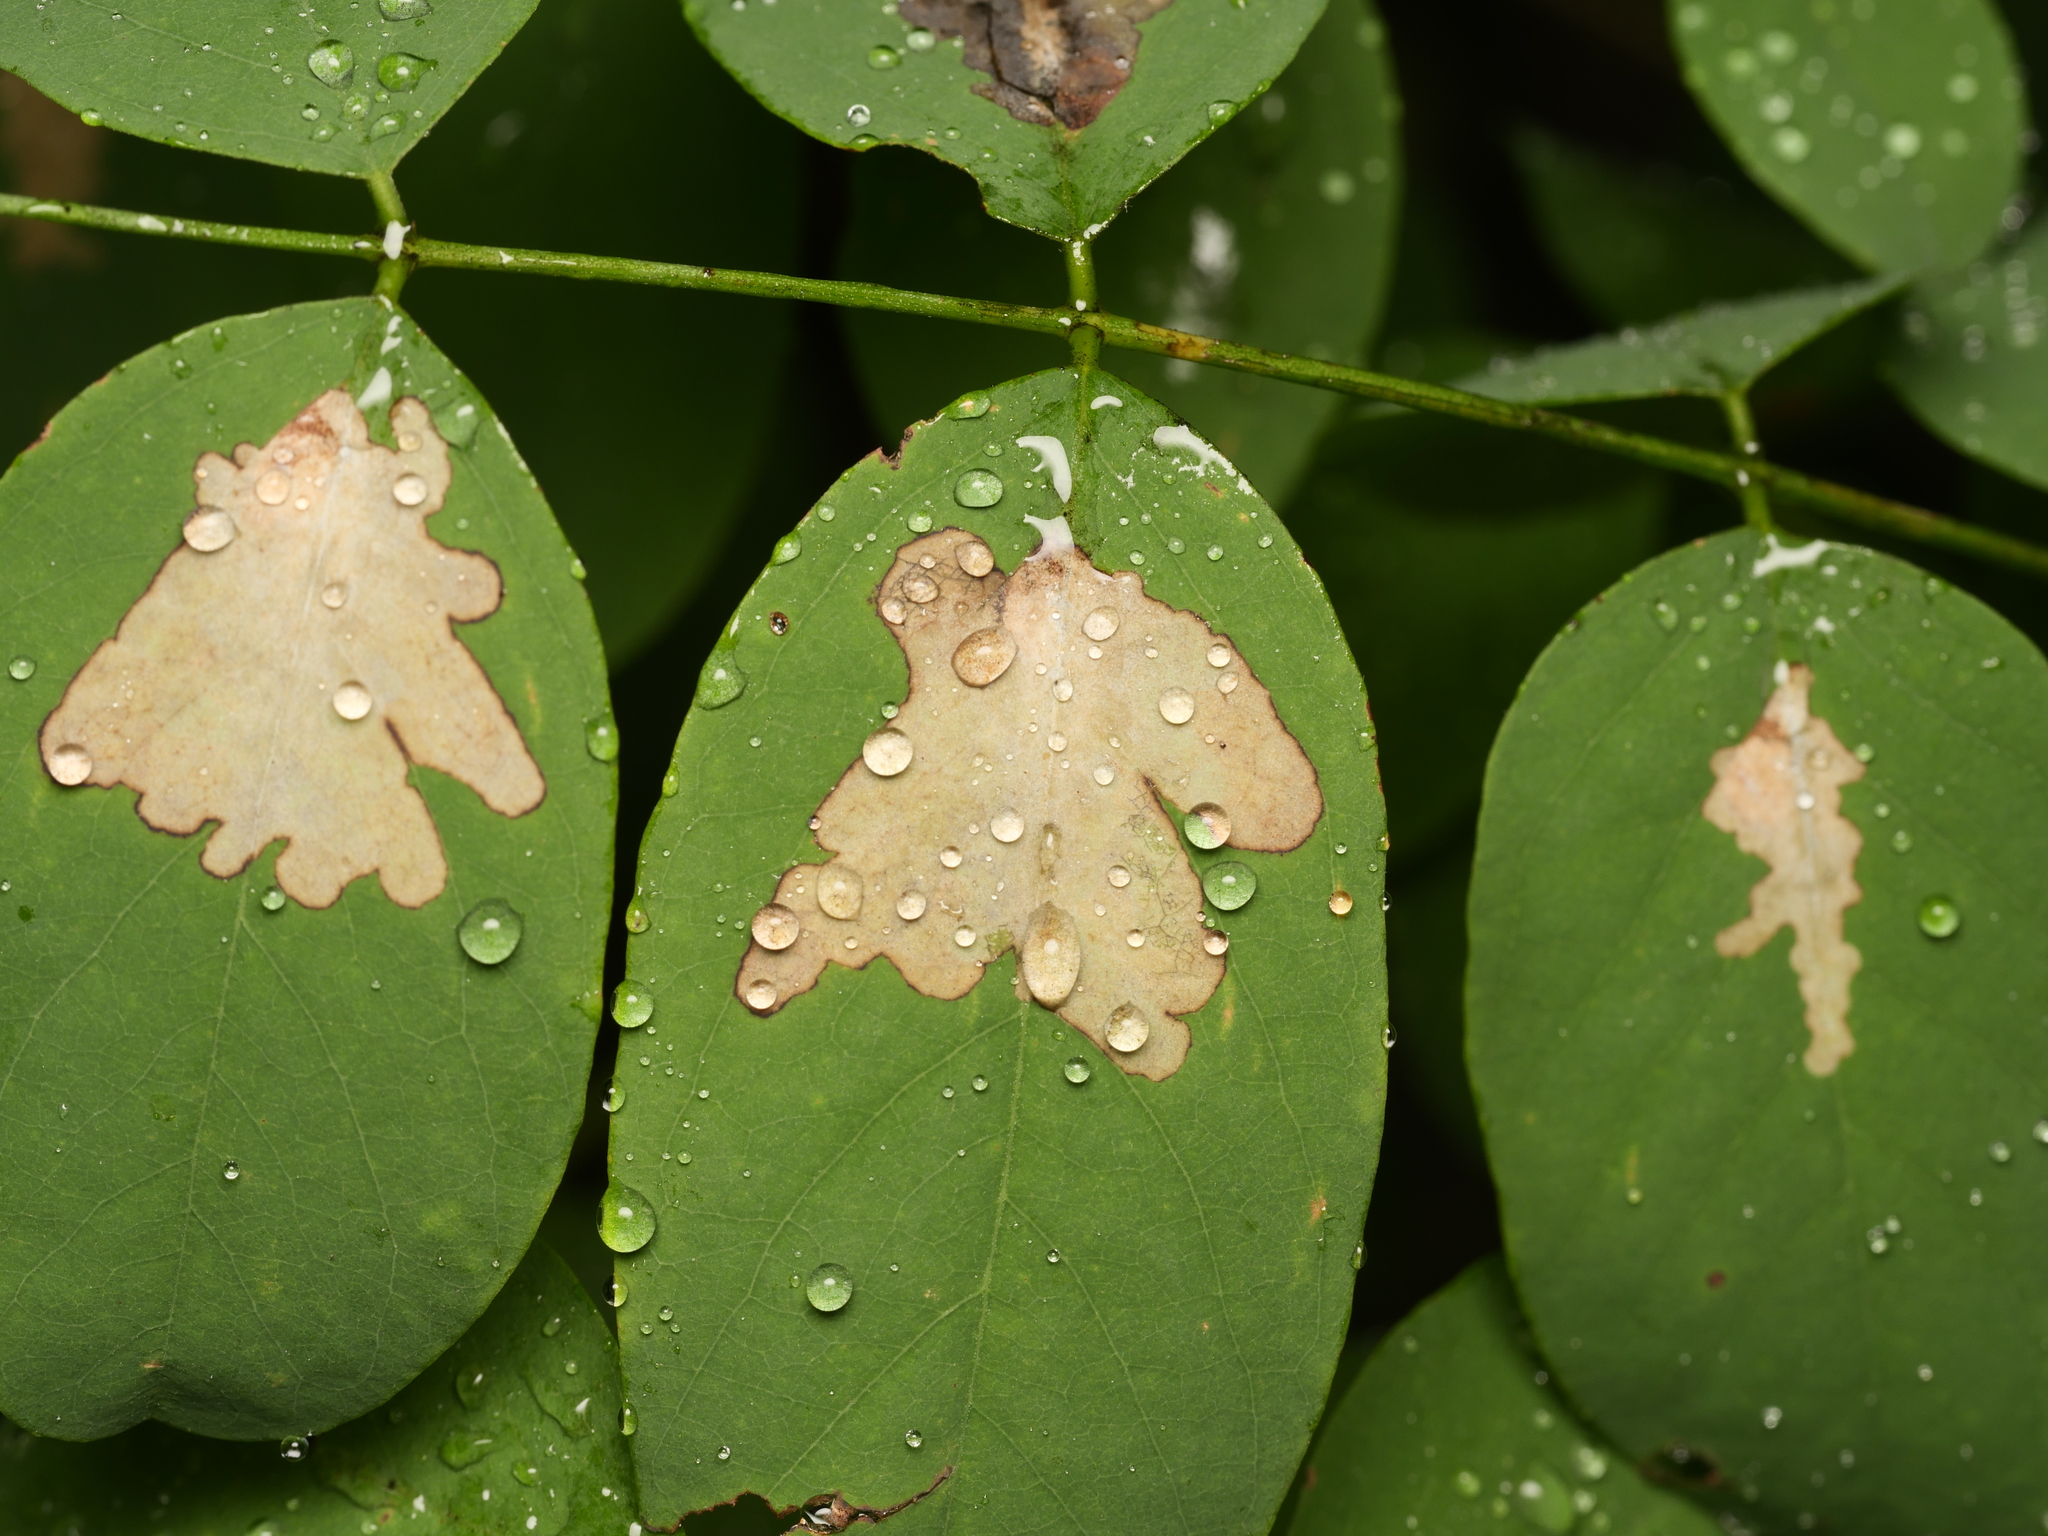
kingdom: Animalia
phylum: Arthropoda
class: Insecta
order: Lepidoptera
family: Gracillariidae
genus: Parectopa
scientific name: Parectopa robiniella
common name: Locust digitate leafminer
